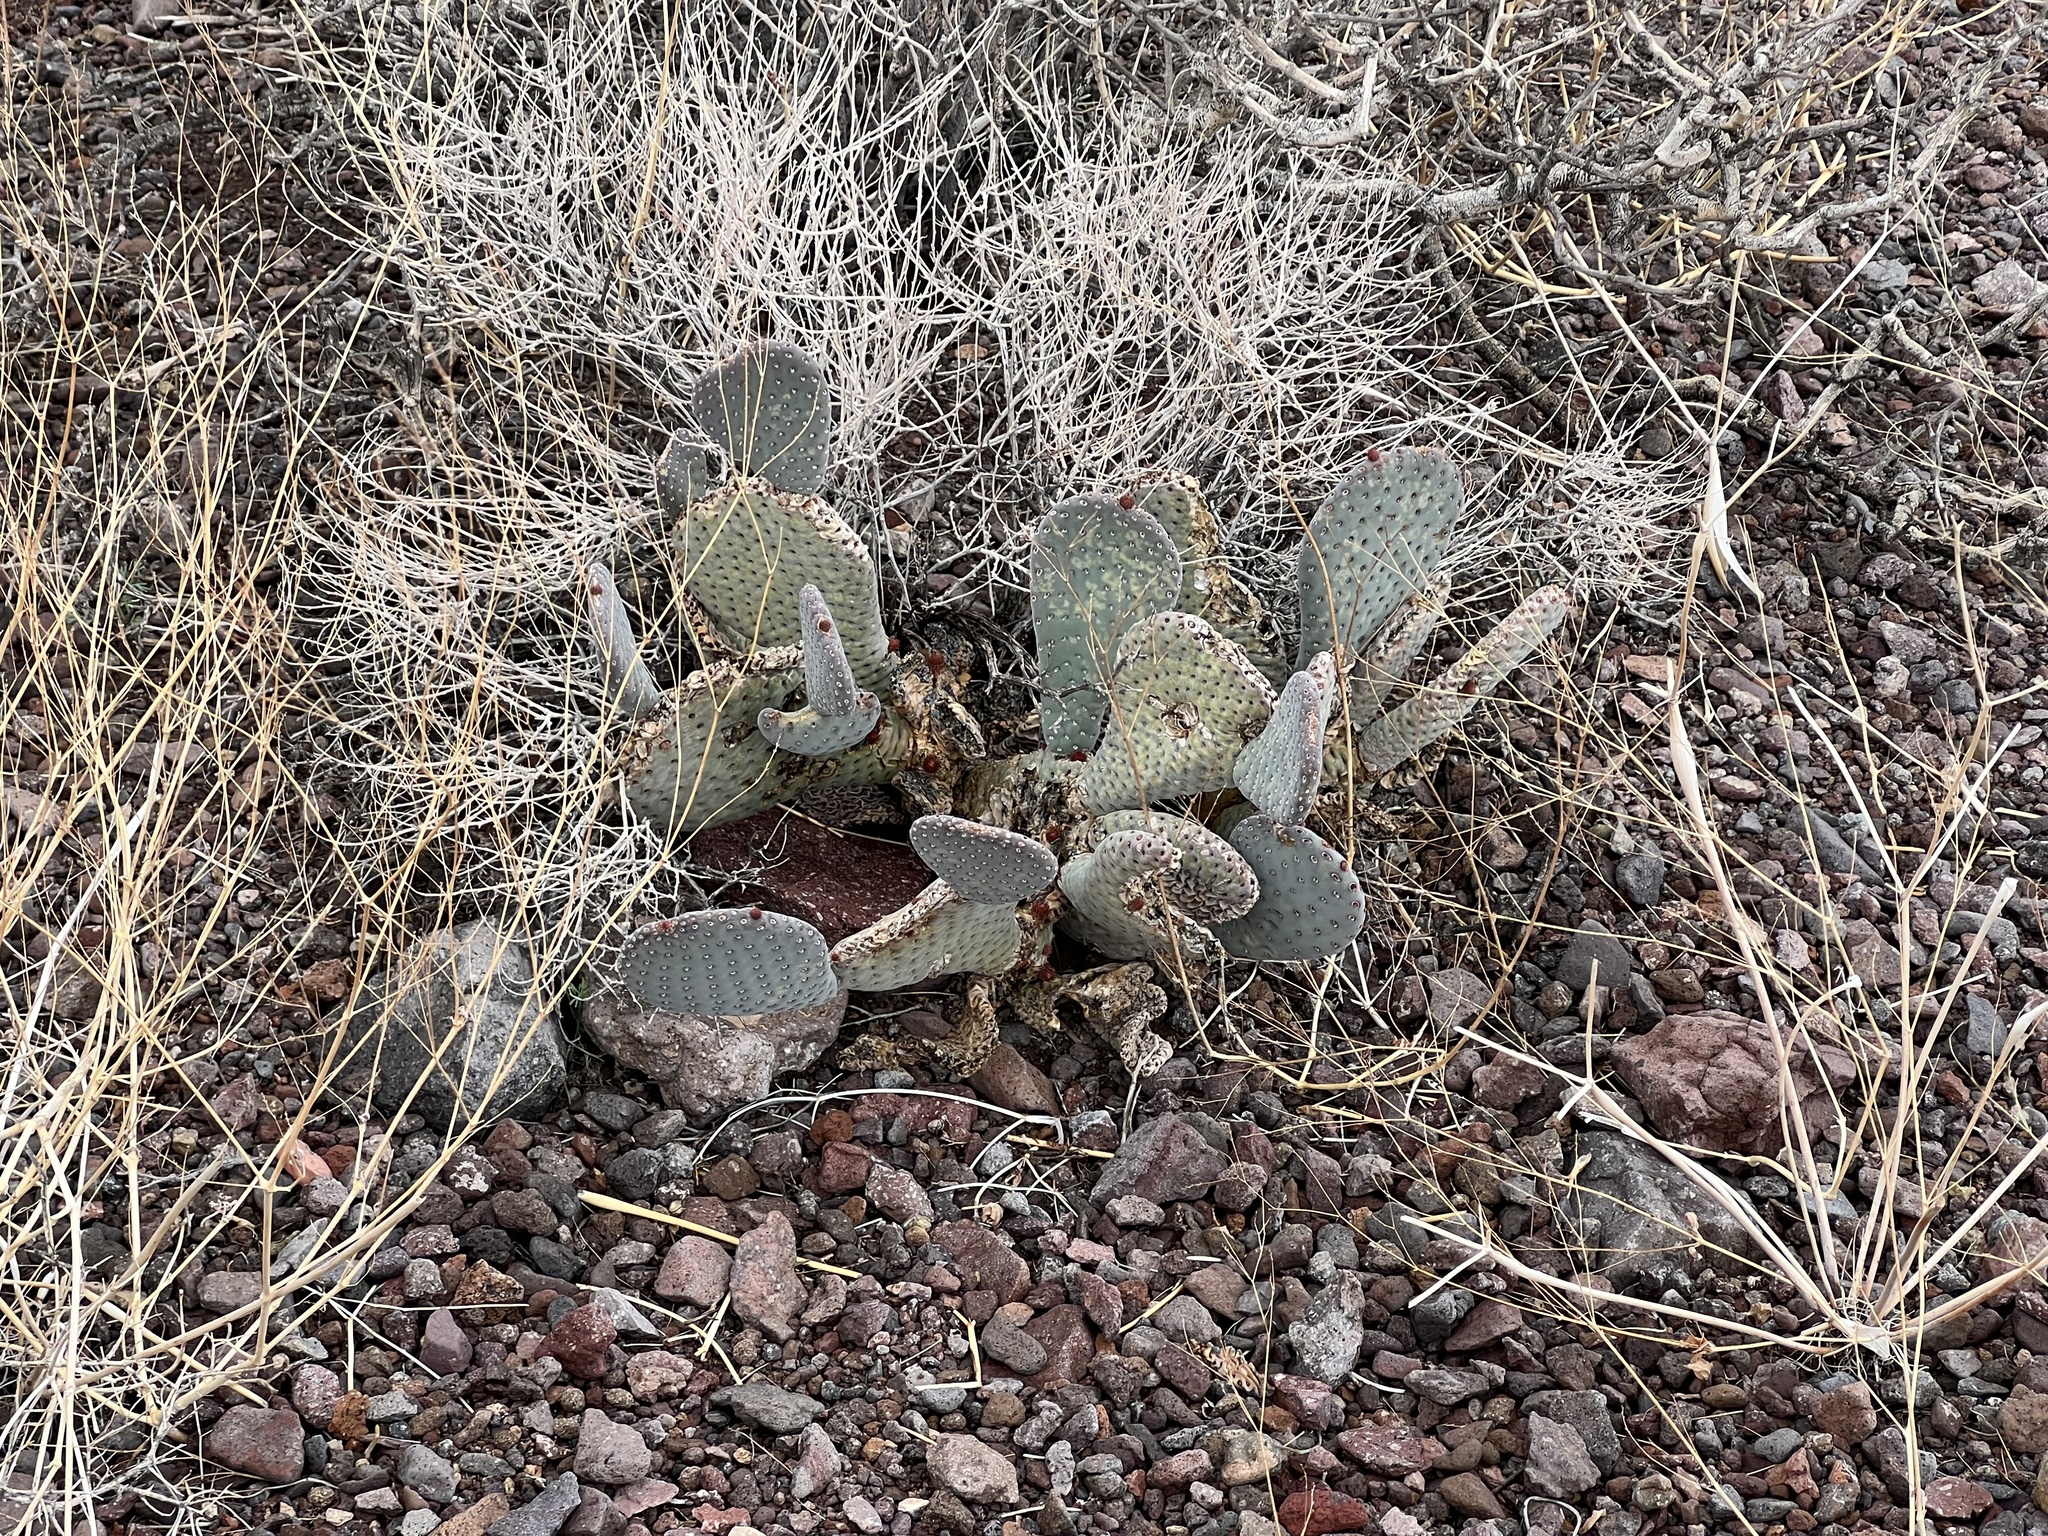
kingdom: Plantae
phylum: Tracheophyta
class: Magnoliopsida
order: Caryophyllales
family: Cactaceae
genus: Opuntia
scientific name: Opuntia basilaris
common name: Beavertail prickly-pear
